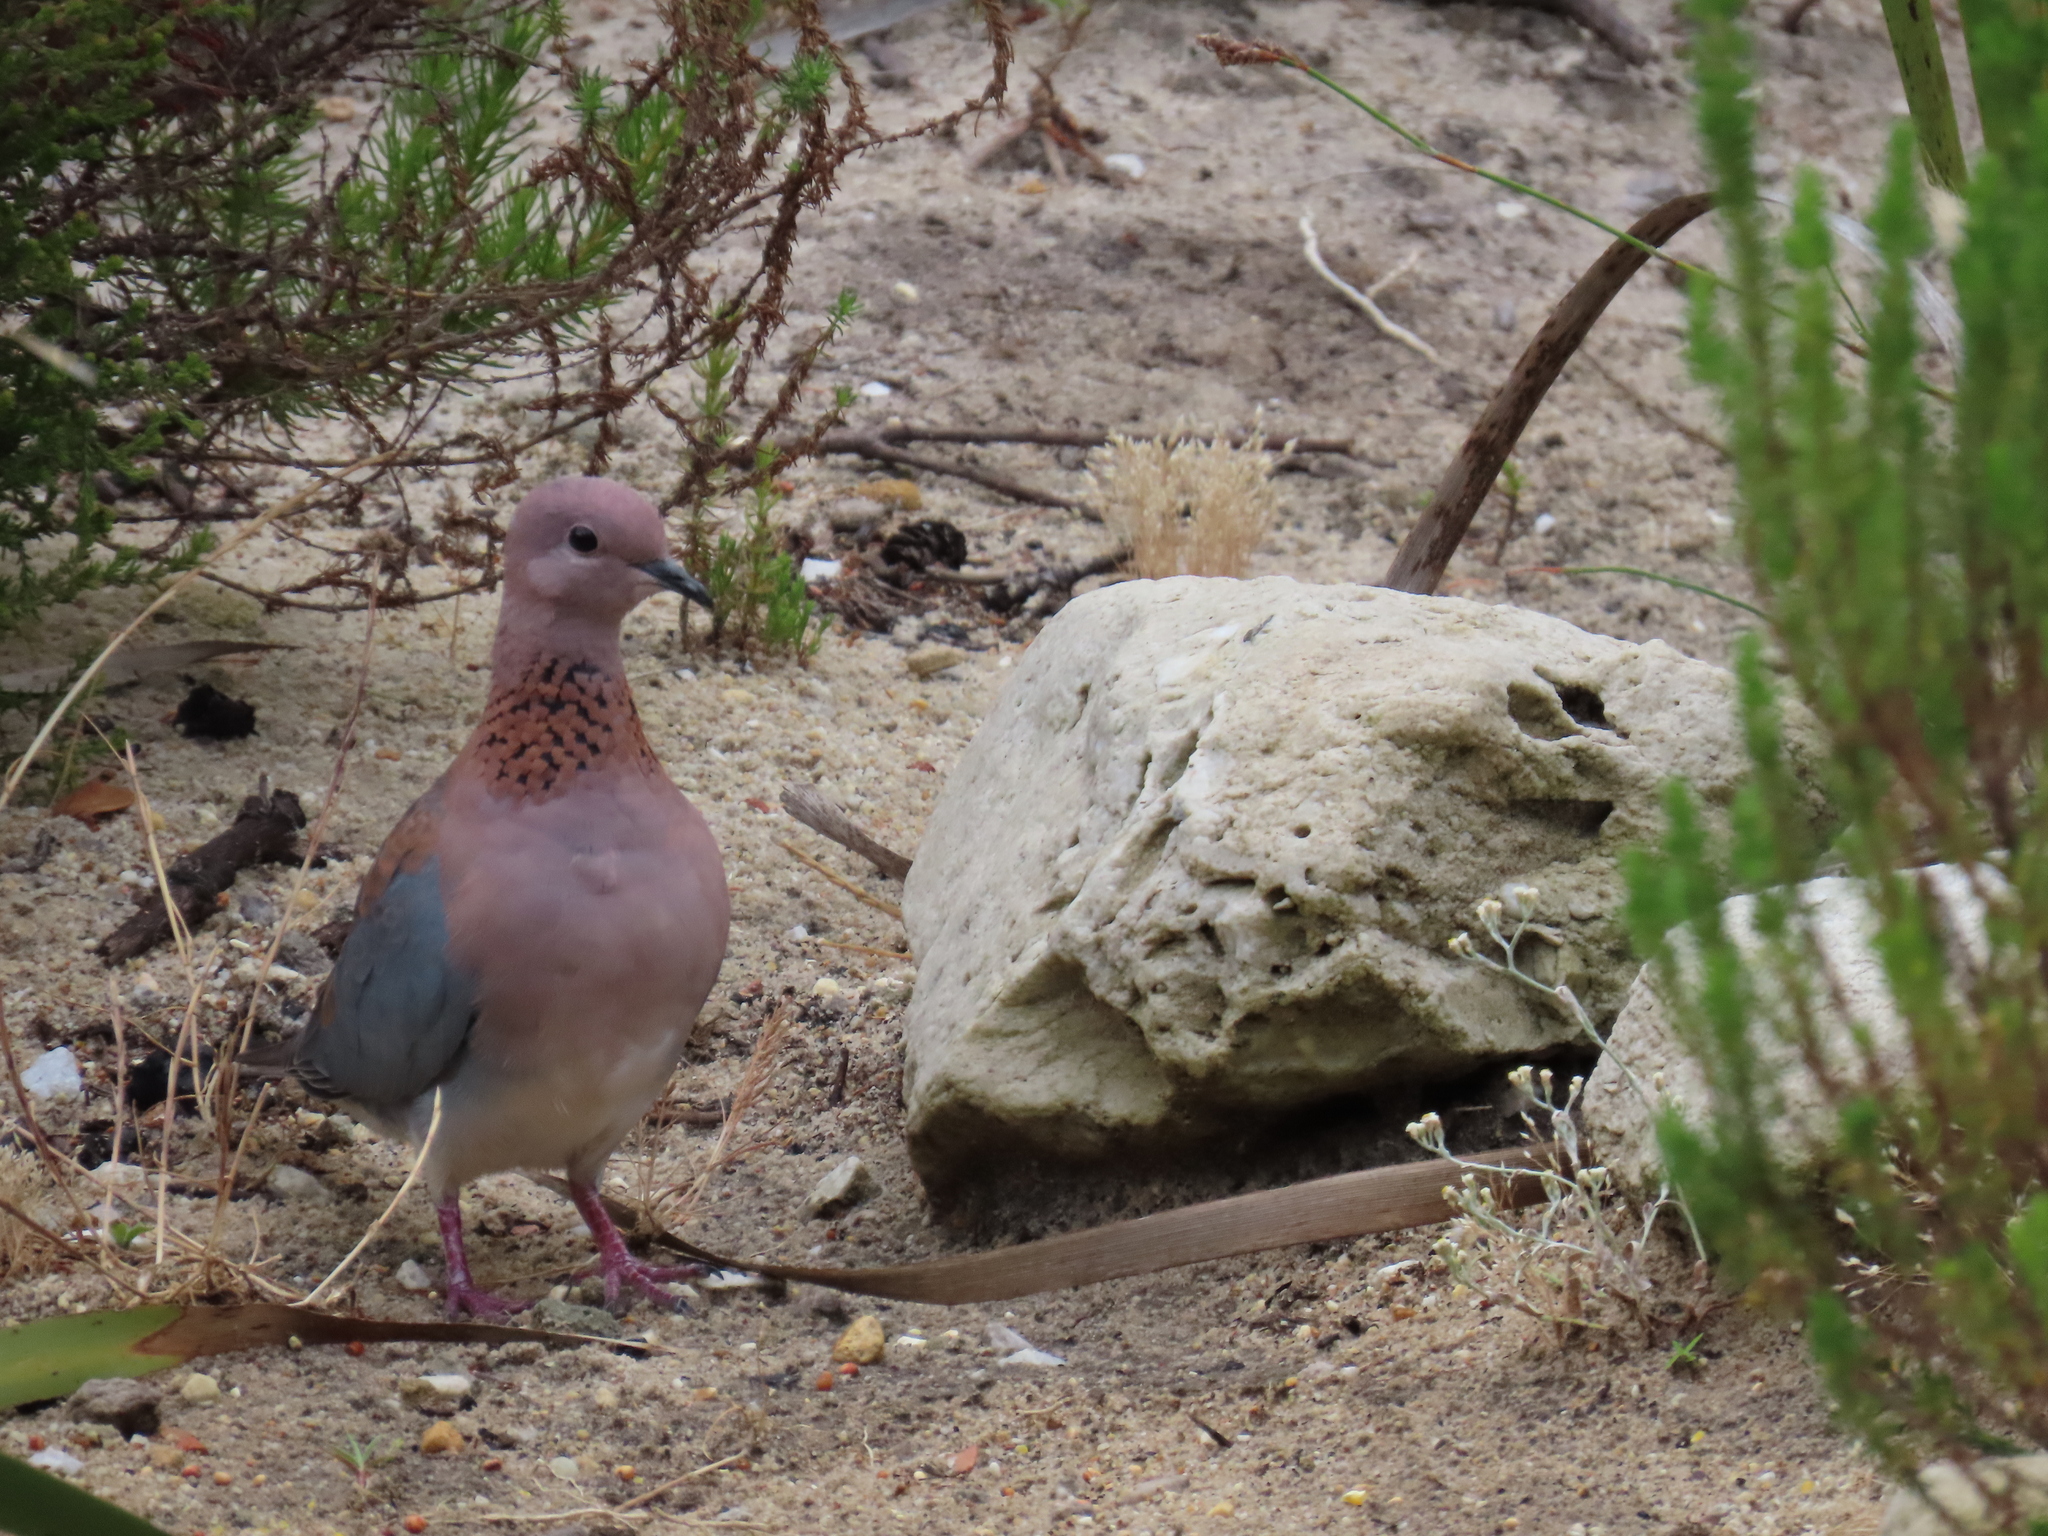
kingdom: Animalia
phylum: Chordata
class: Aves
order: Columbiformes
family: Columbidae
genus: Spilopelia
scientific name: Spilopelia senegalensis
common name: Laughing dove
